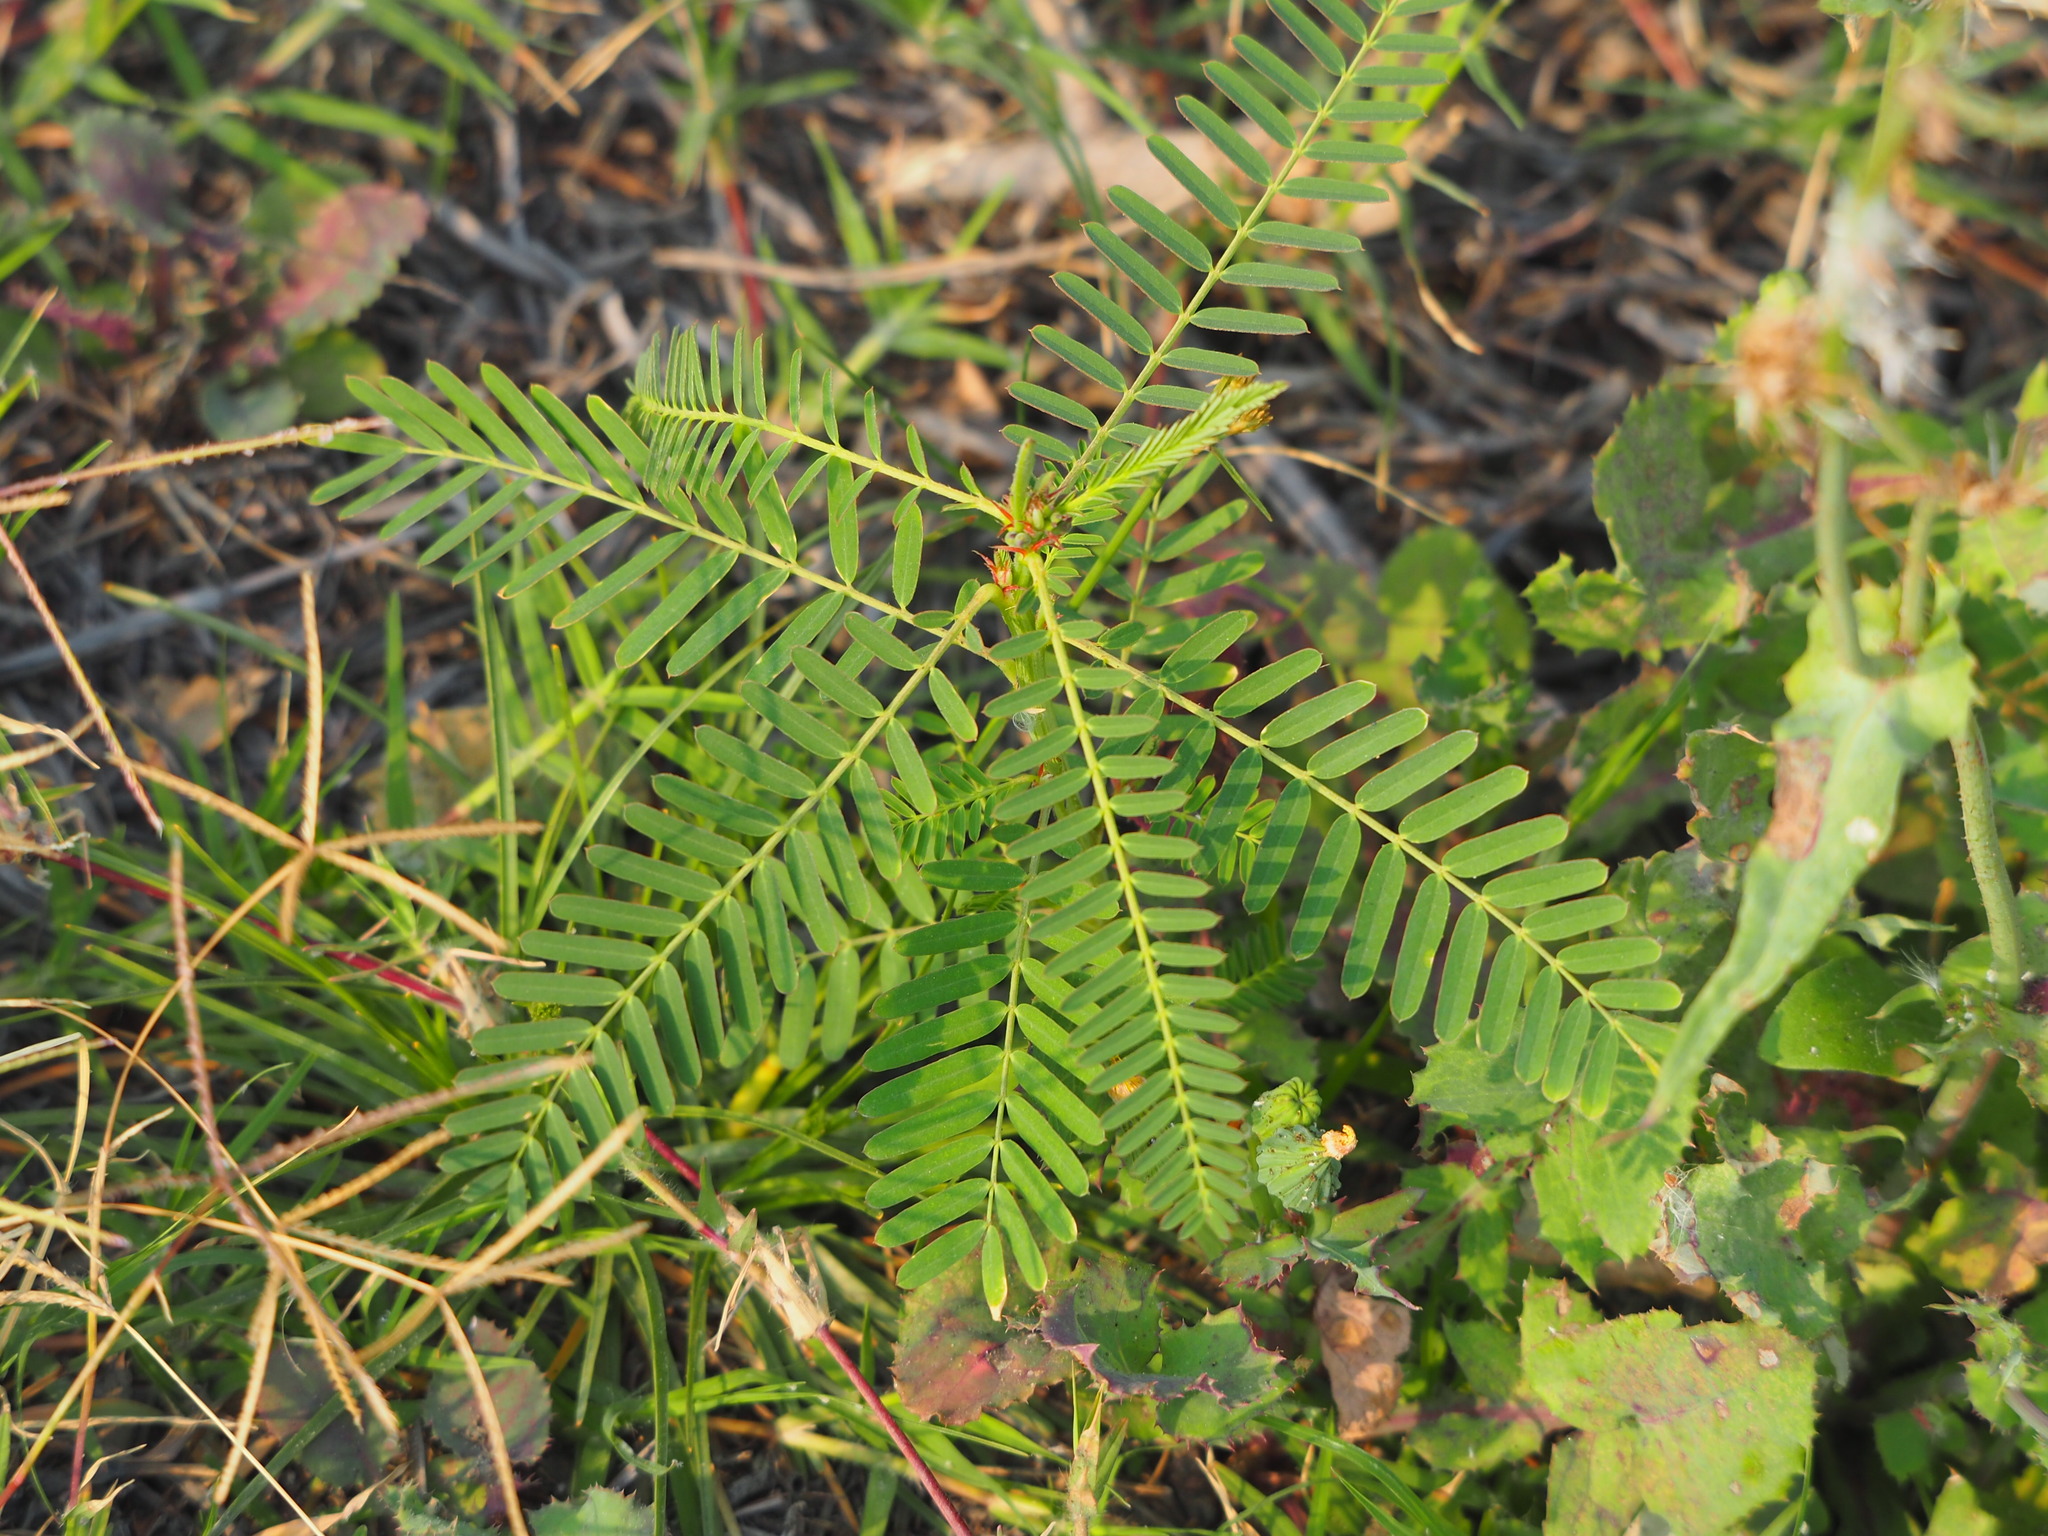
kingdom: Plantae
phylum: Tracheophyta
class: Magnoliopsida
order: Fabales
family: Fabaceae
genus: Sesbania
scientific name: Sesbania cannabina
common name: Canicha
